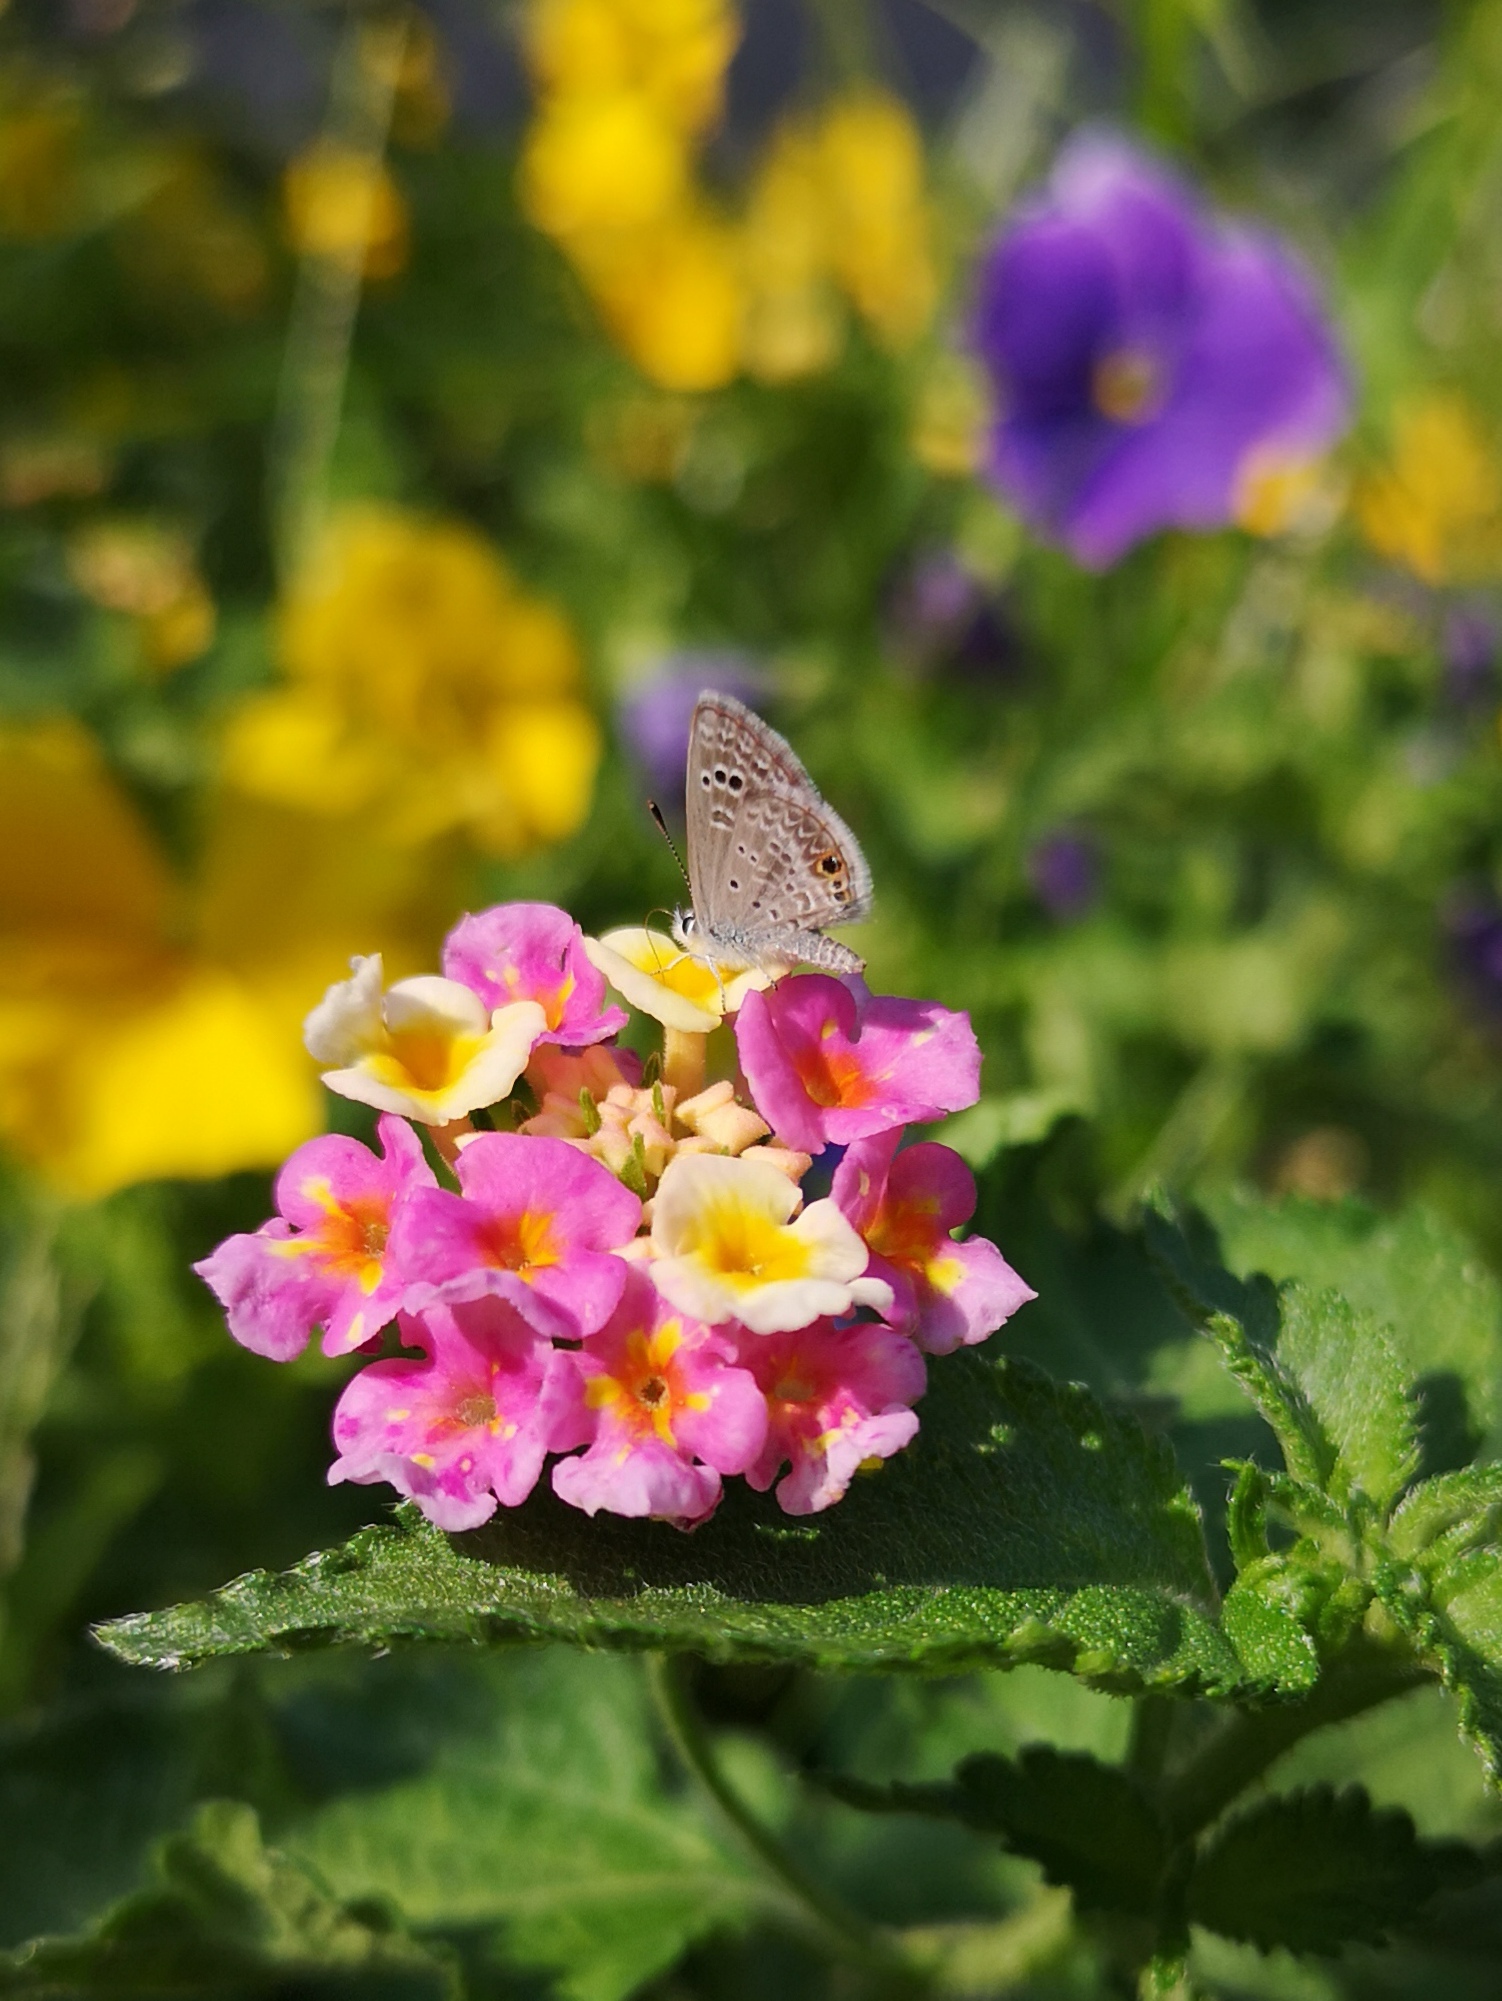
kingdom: Animalia
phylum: Arthropoda
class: Insecta
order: Lepidoptera
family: Lycaenidae
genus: Echinargus
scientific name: Echinargus isola
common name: Reakirt's blue
